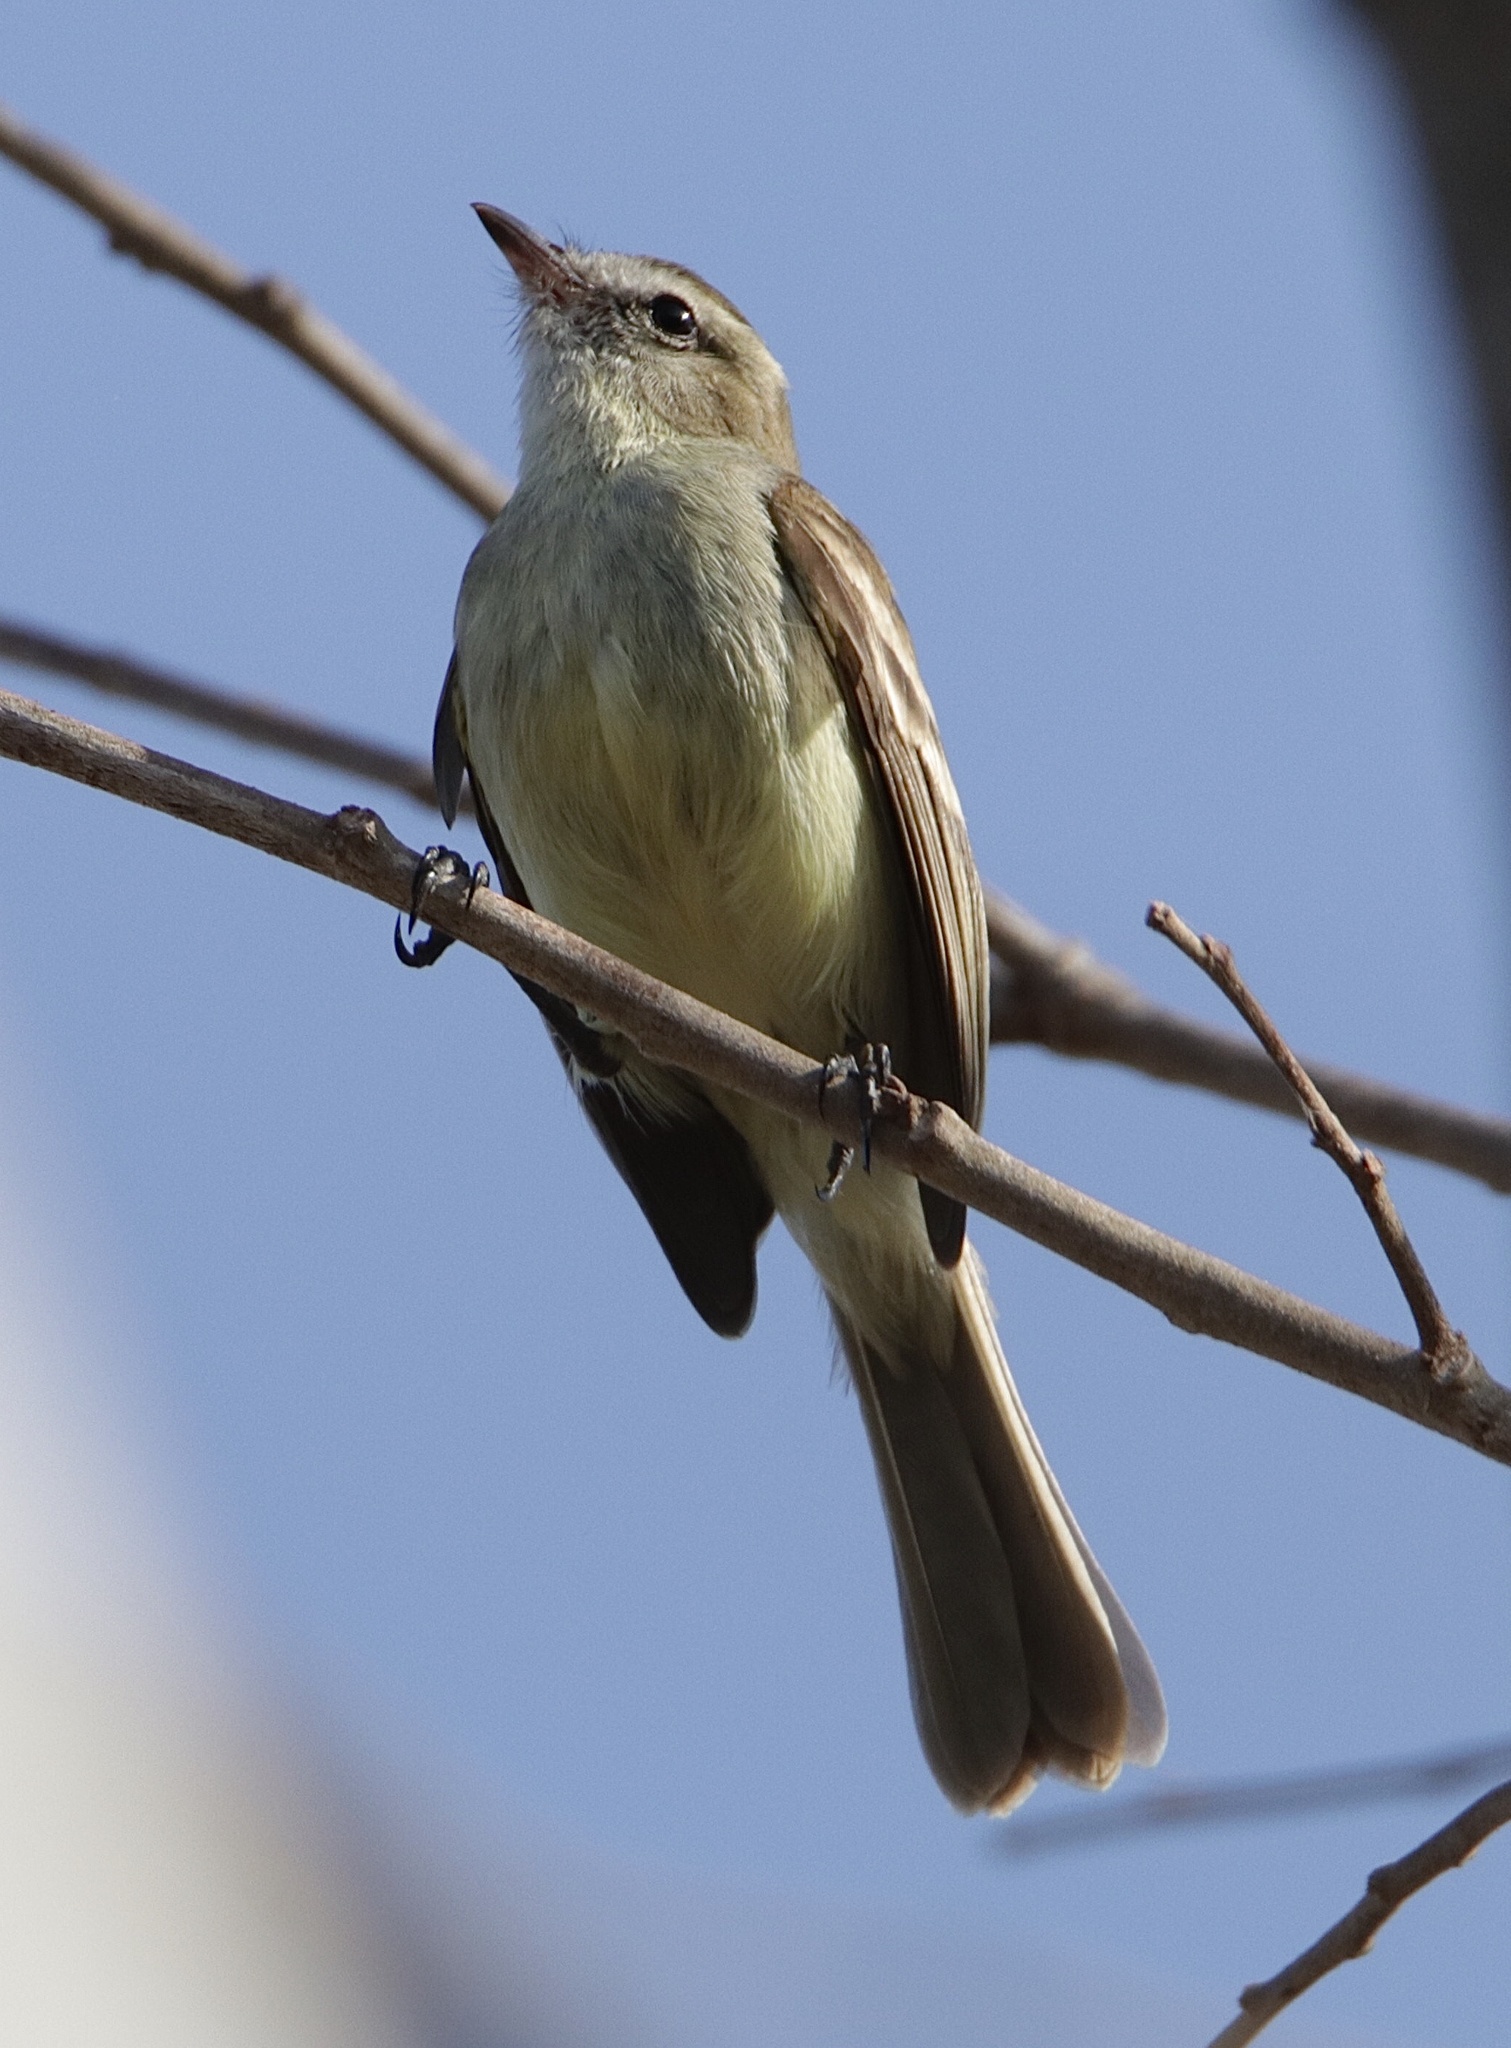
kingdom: Animalia
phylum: Chordata
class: Aves
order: Passeriformes
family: Tyrannidae
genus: Phaeomyias
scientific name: Phaeomyias murina
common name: Mouse-colored tyrannulet
